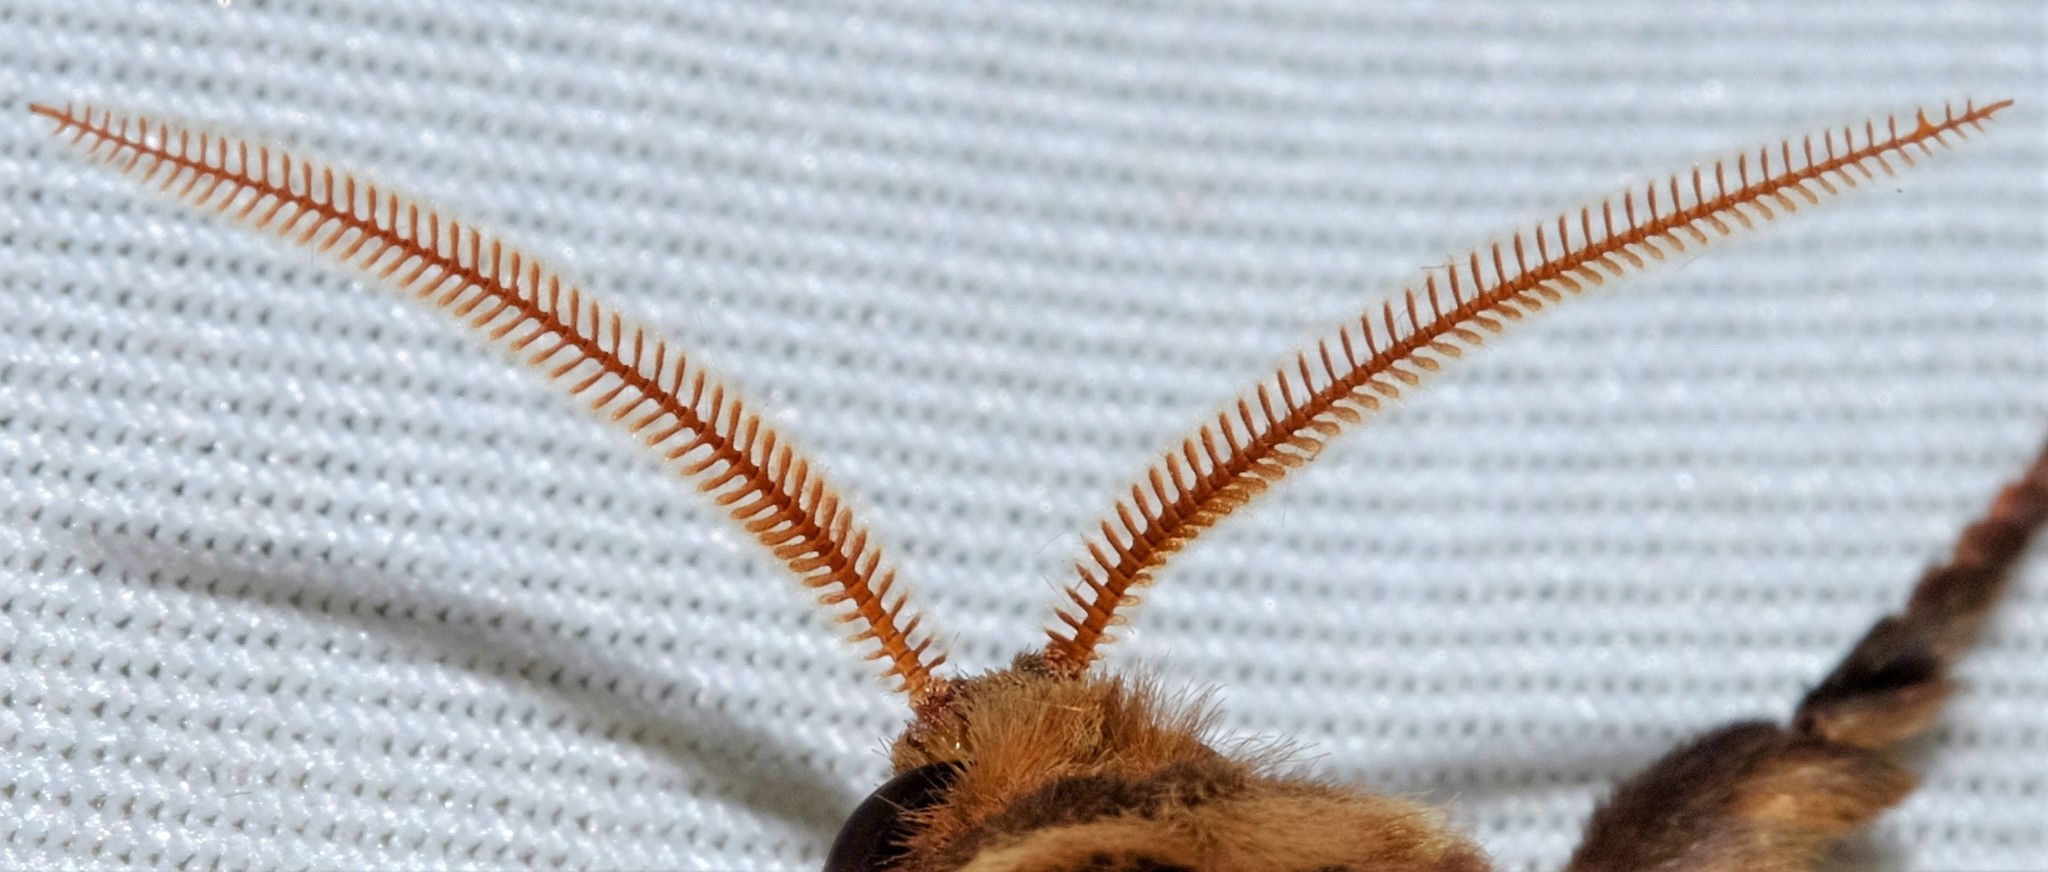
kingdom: Animalia
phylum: Arthropoda
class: Insecta
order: Lepidoptera
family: Hepialidae
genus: Oxycanus
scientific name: Oxycanus australis
